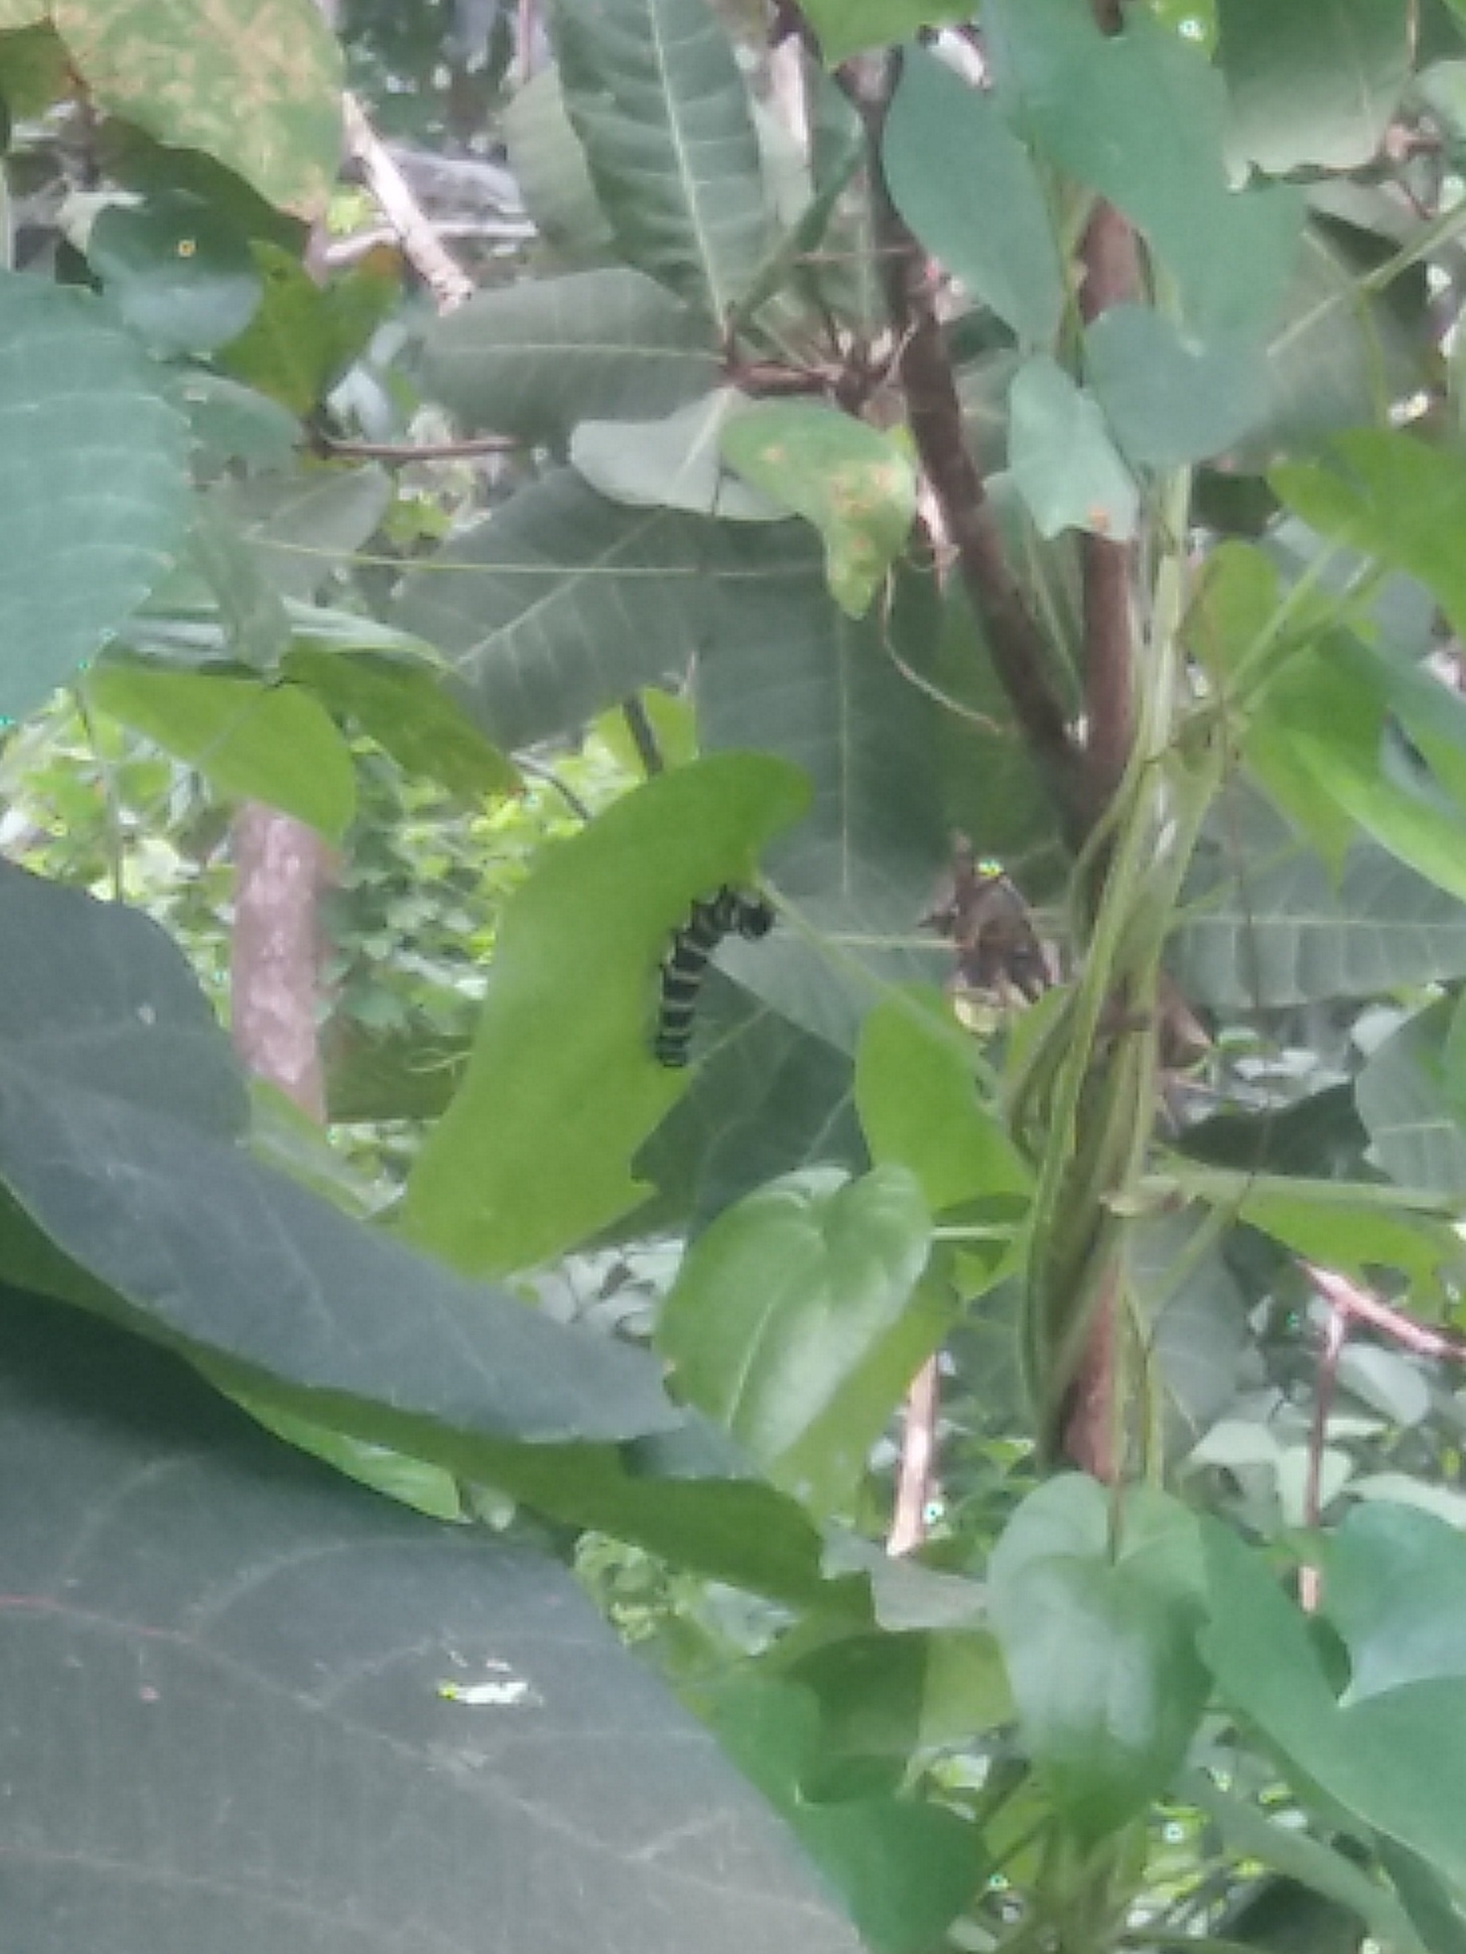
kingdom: Animalia
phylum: Arthropoda
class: Insecta
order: Lepidoptera
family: Noctuidae
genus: Episteme
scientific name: Episteme latimargo
